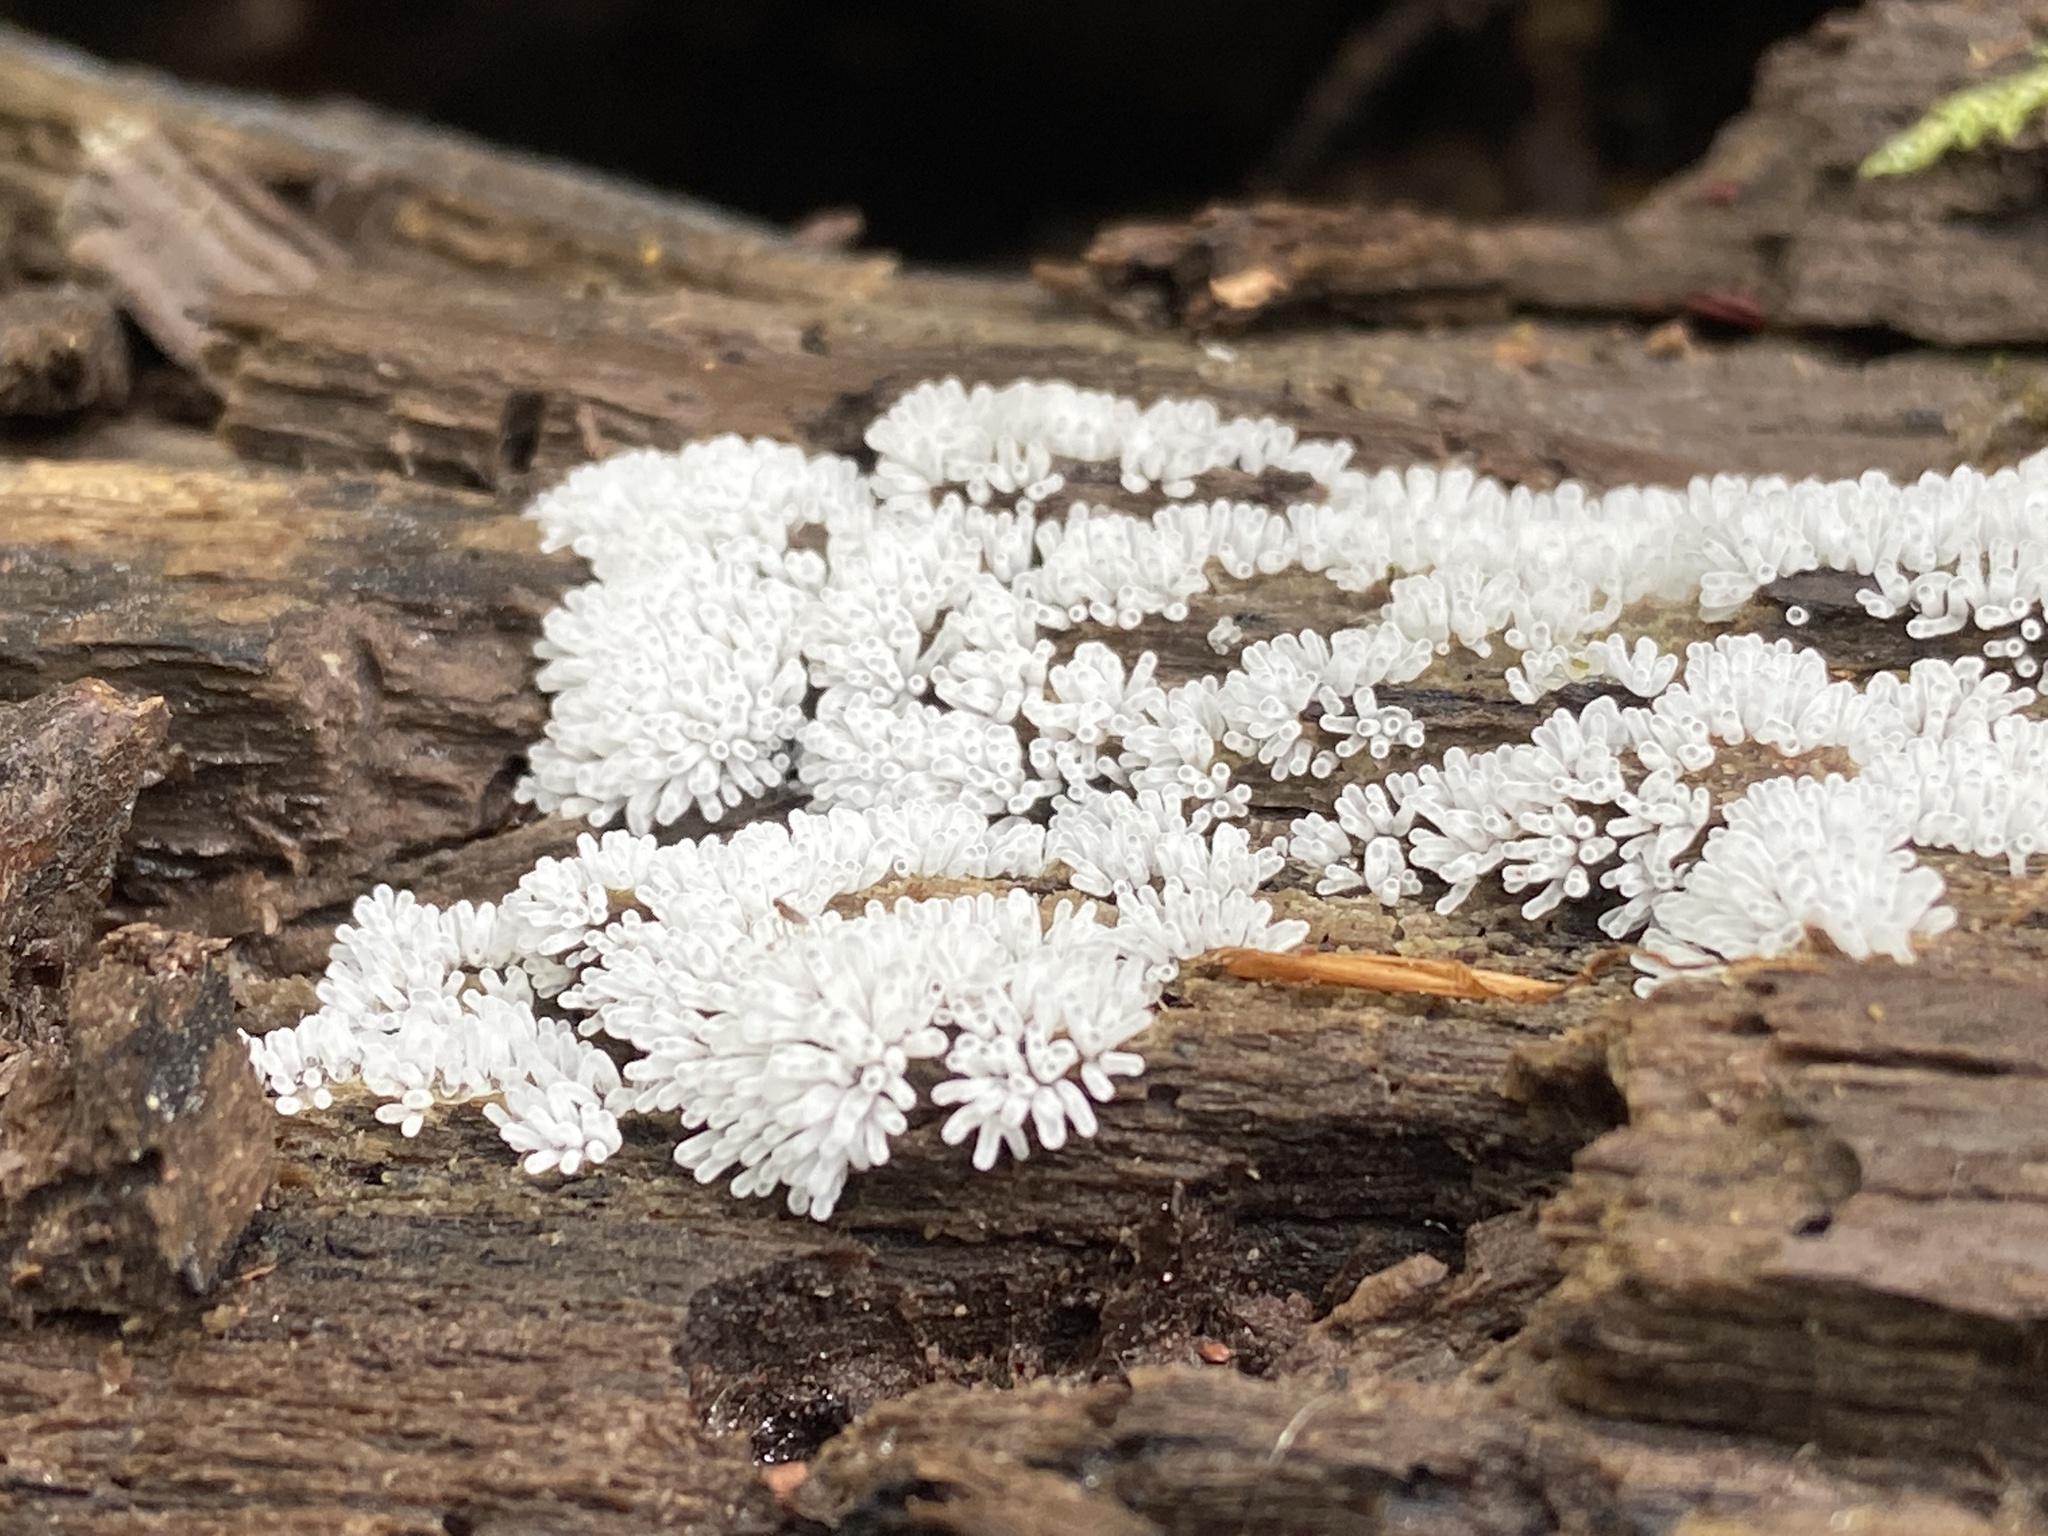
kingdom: Protozoa
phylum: Mycetozoa
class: Protosteliomycetes
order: Ceratiomyxales
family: Ceratiomyxaceae
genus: Ceratiomyxa
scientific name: Ceratiomyxa fruticulosa
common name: Honeycomb coral slime mold
